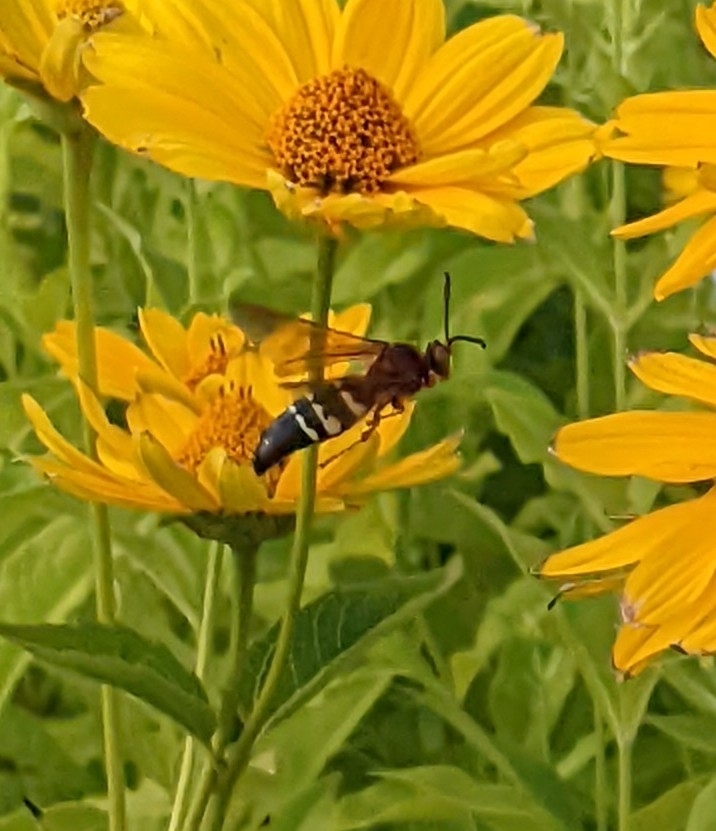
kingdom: Animalia
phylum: Arthropoda
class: Insecta
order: Hymenoptera
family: Crabronidae
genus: Sphecius
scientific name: Sphecius speciosus
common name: Cicada killer
